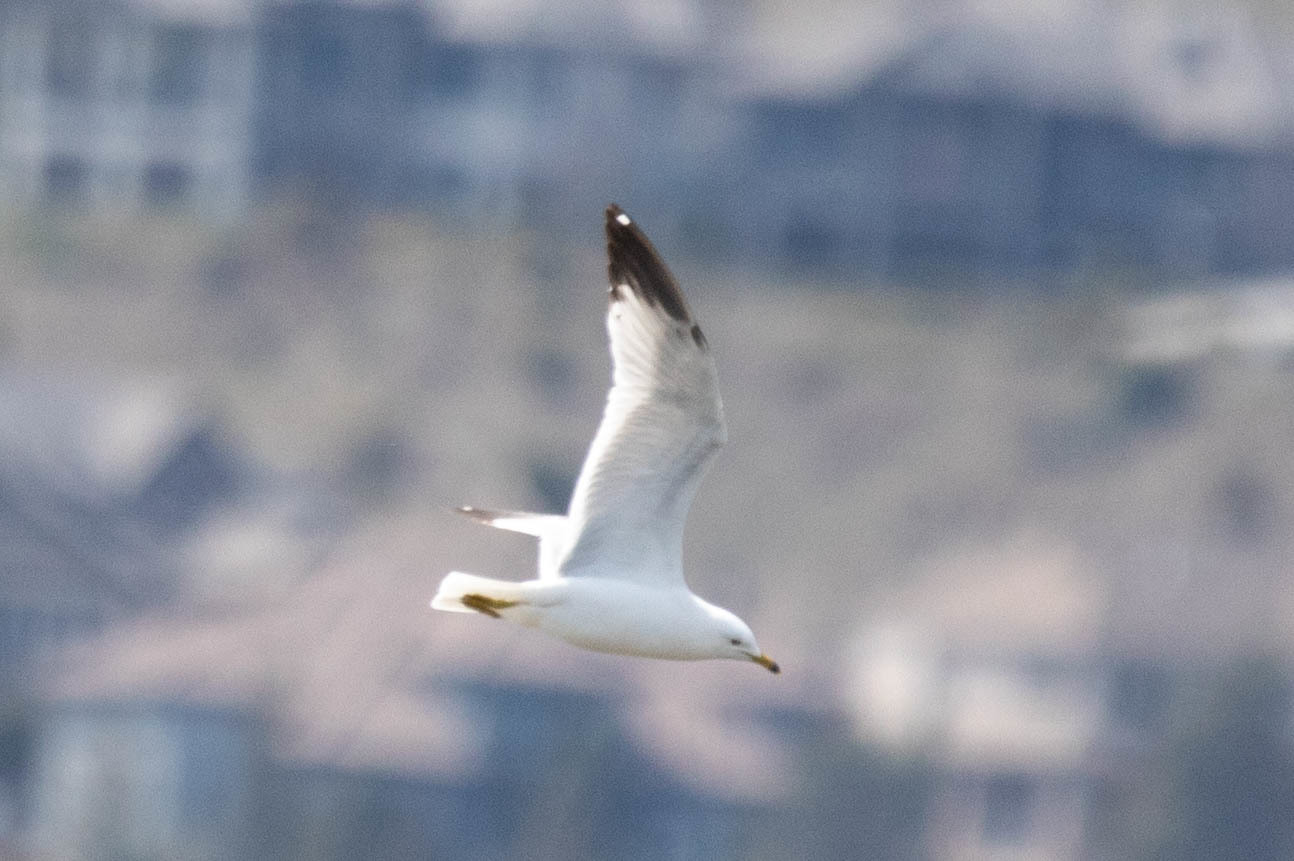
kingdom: Animalia
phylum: Chordata
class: Aves
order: Charadriiformes
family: Laridae
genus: Larus
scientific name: Larus delawarensis
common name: Ring-billed gull
